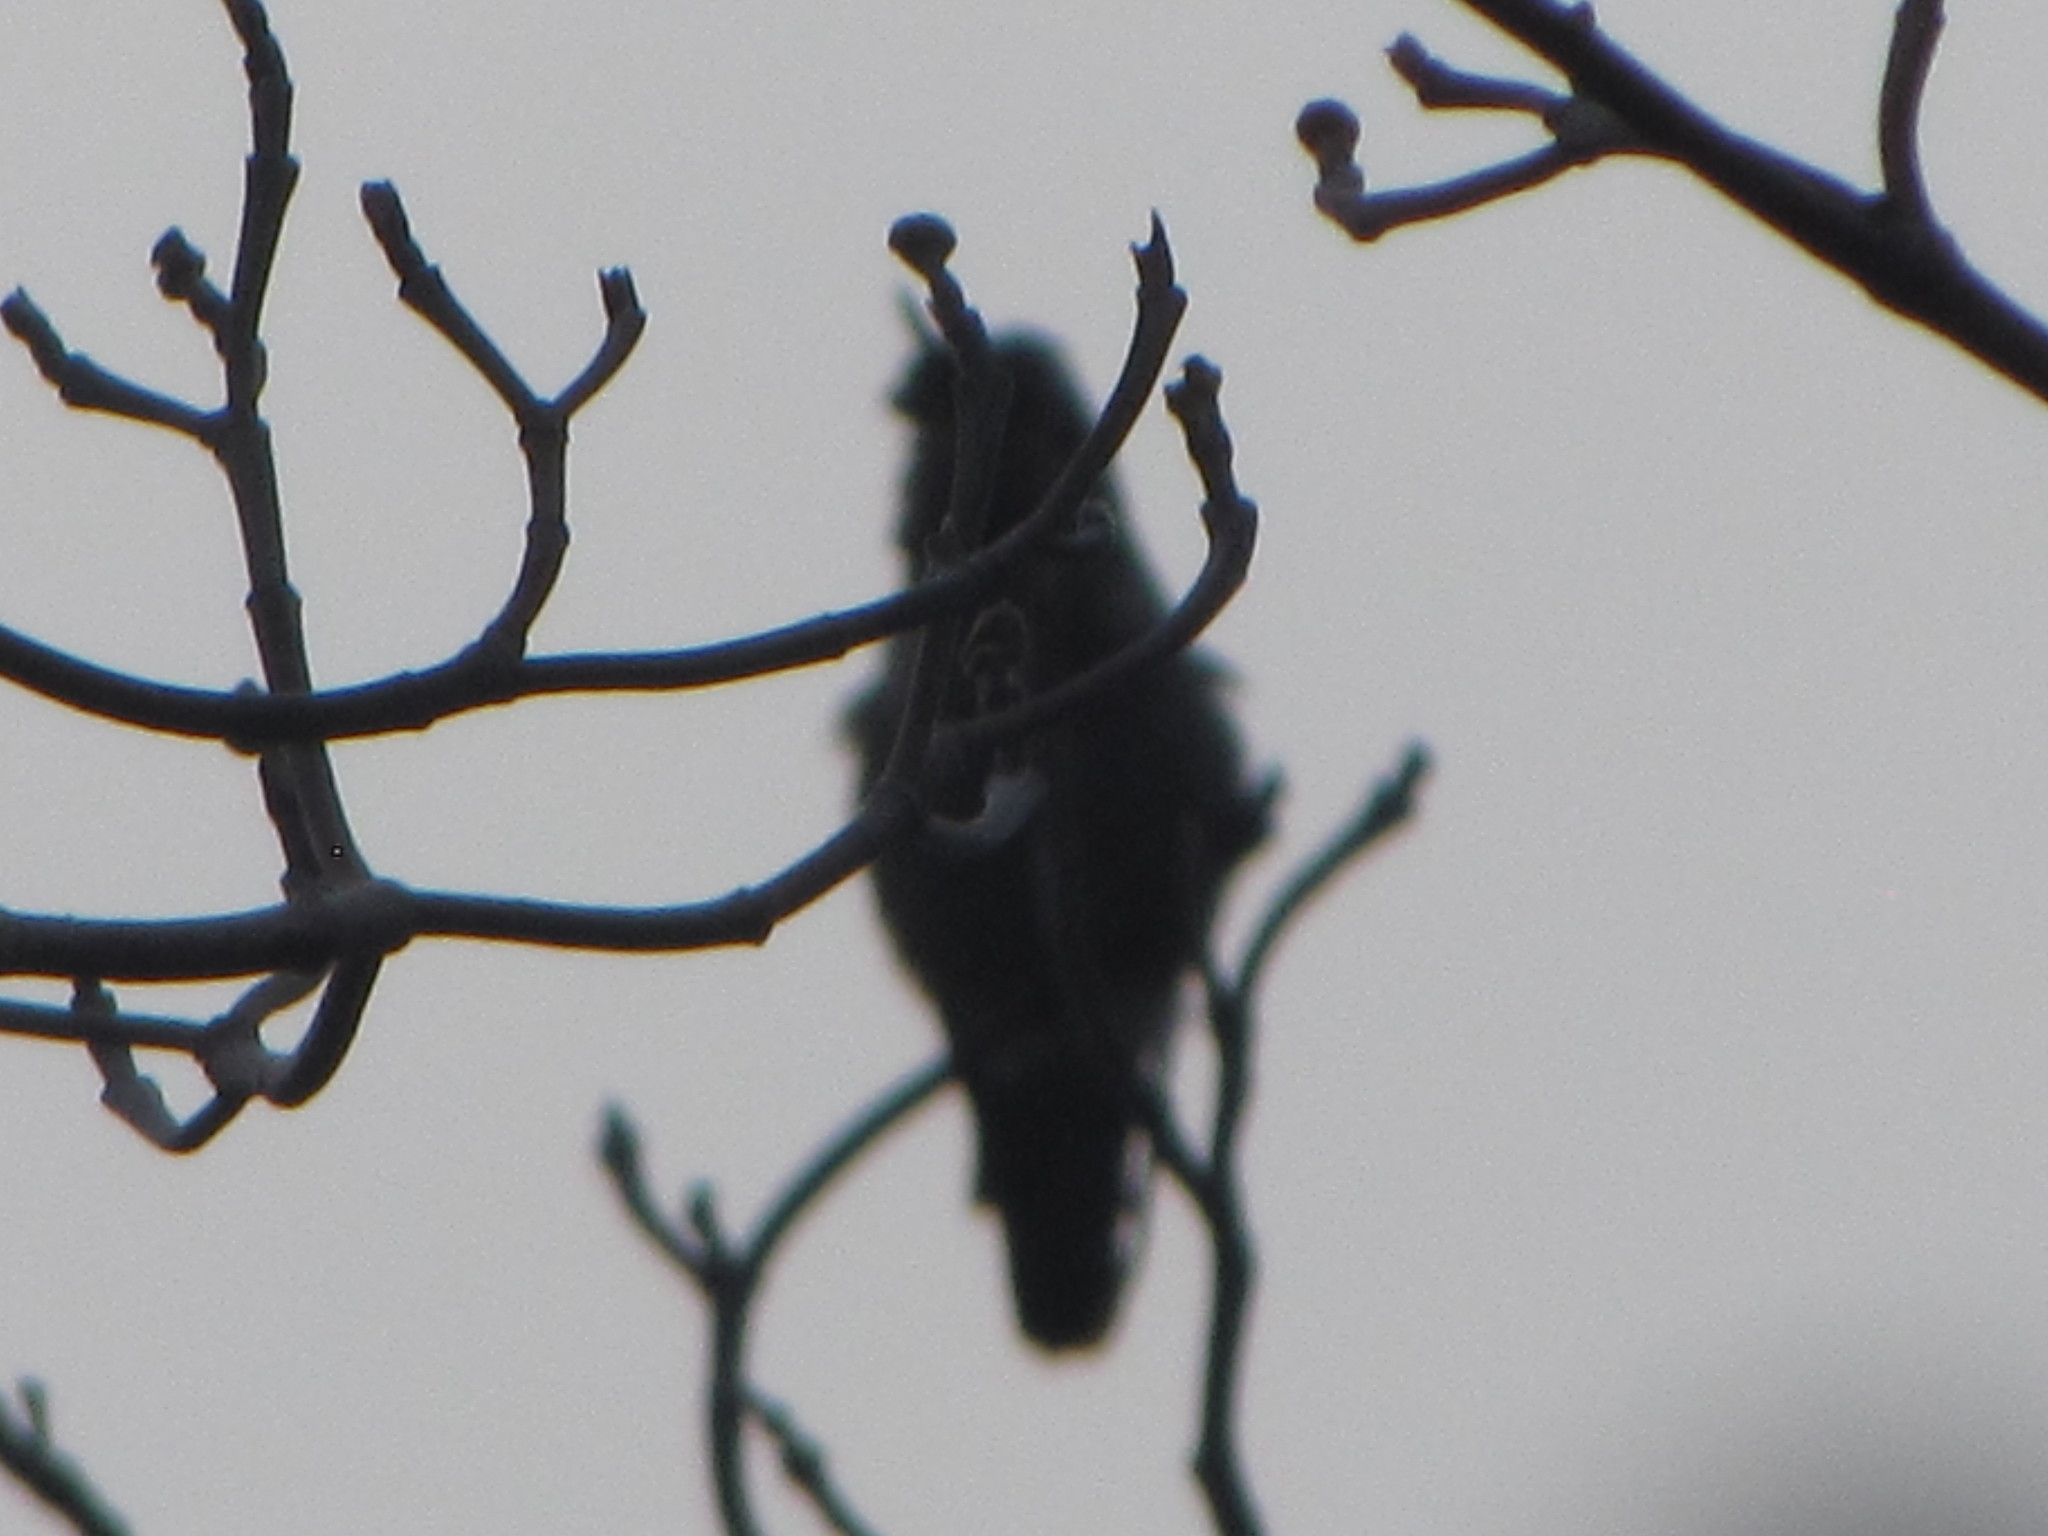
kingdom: Animalia
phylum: Chordata
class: Aves
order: Apodiformes
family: Trochilidae
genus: Calypte
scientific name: Calypte anna
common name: Anna's hummingbird
